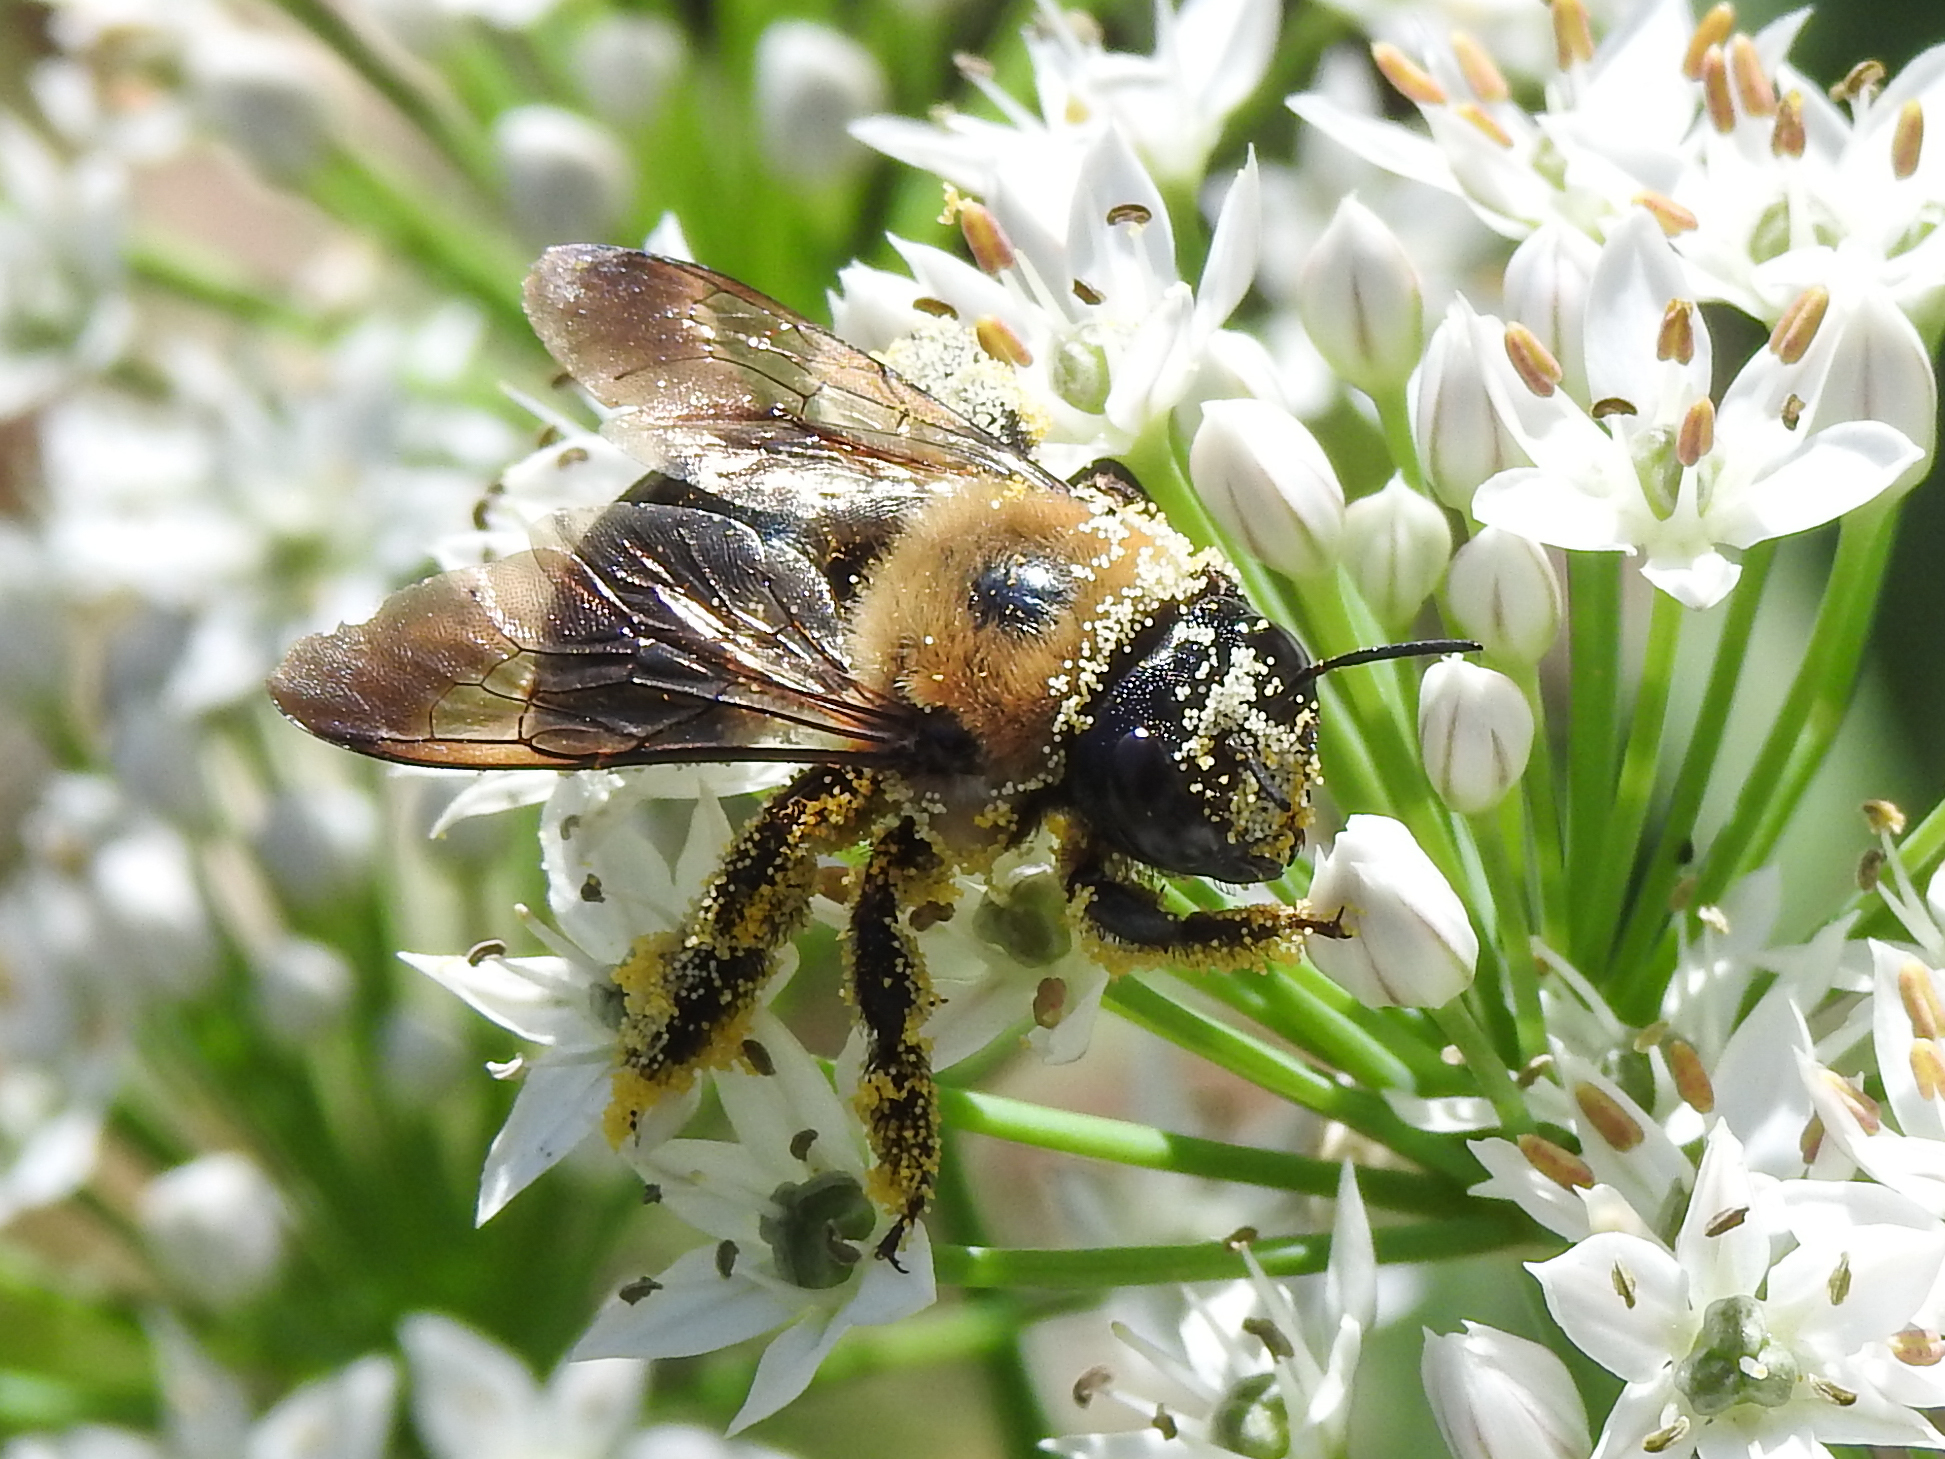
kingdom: Animalia
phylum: Arthropoda
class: Insecta
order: Hymenoptera
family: Apidae
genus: Xylocopa
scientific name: Xylocopa virginica
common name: Carpenter bee
